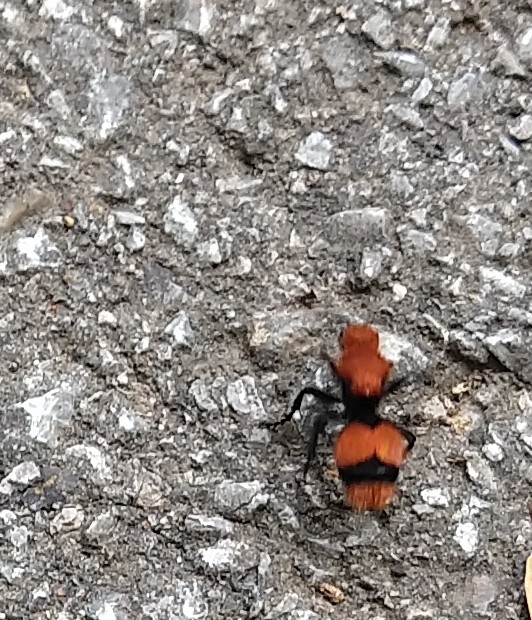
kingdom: Animalia
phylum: Arthropoda
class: Insecta
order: Hymenoptera
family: Mutillidae
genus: Dasymutilla
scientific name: Dasymutilla occidentalis
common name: Common eastern velvet ant
